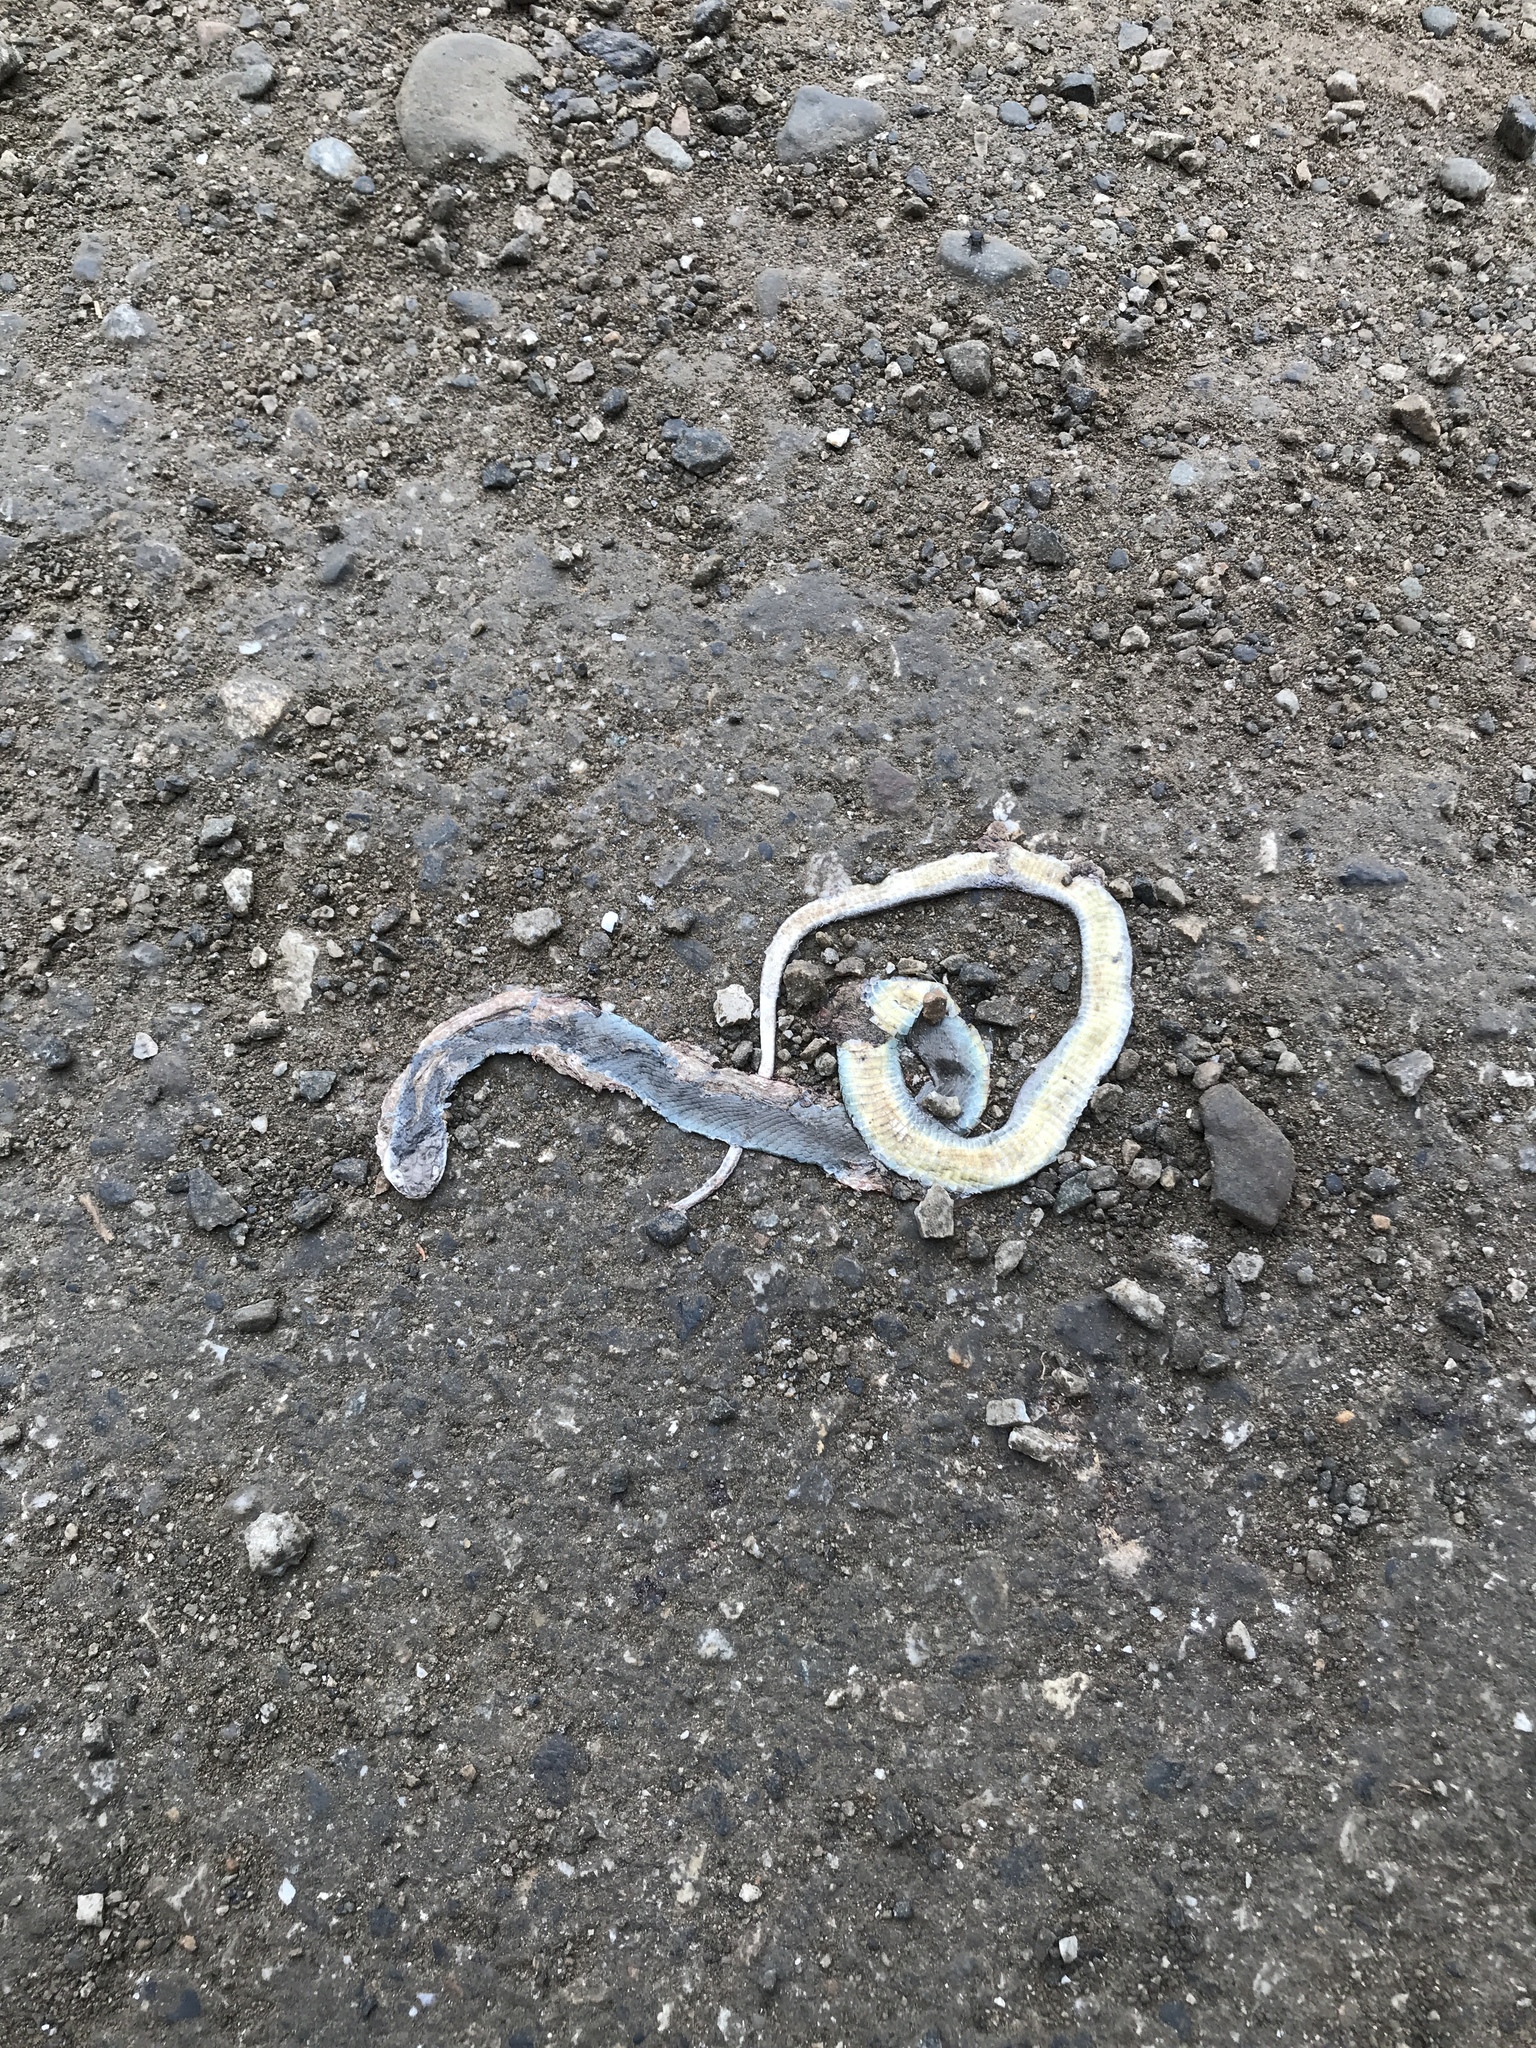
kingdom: Animalia
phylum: Chordata
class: Squamata
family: Colubridae
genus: Coluber
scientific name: Coluber constrictor
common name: Eastern racer
